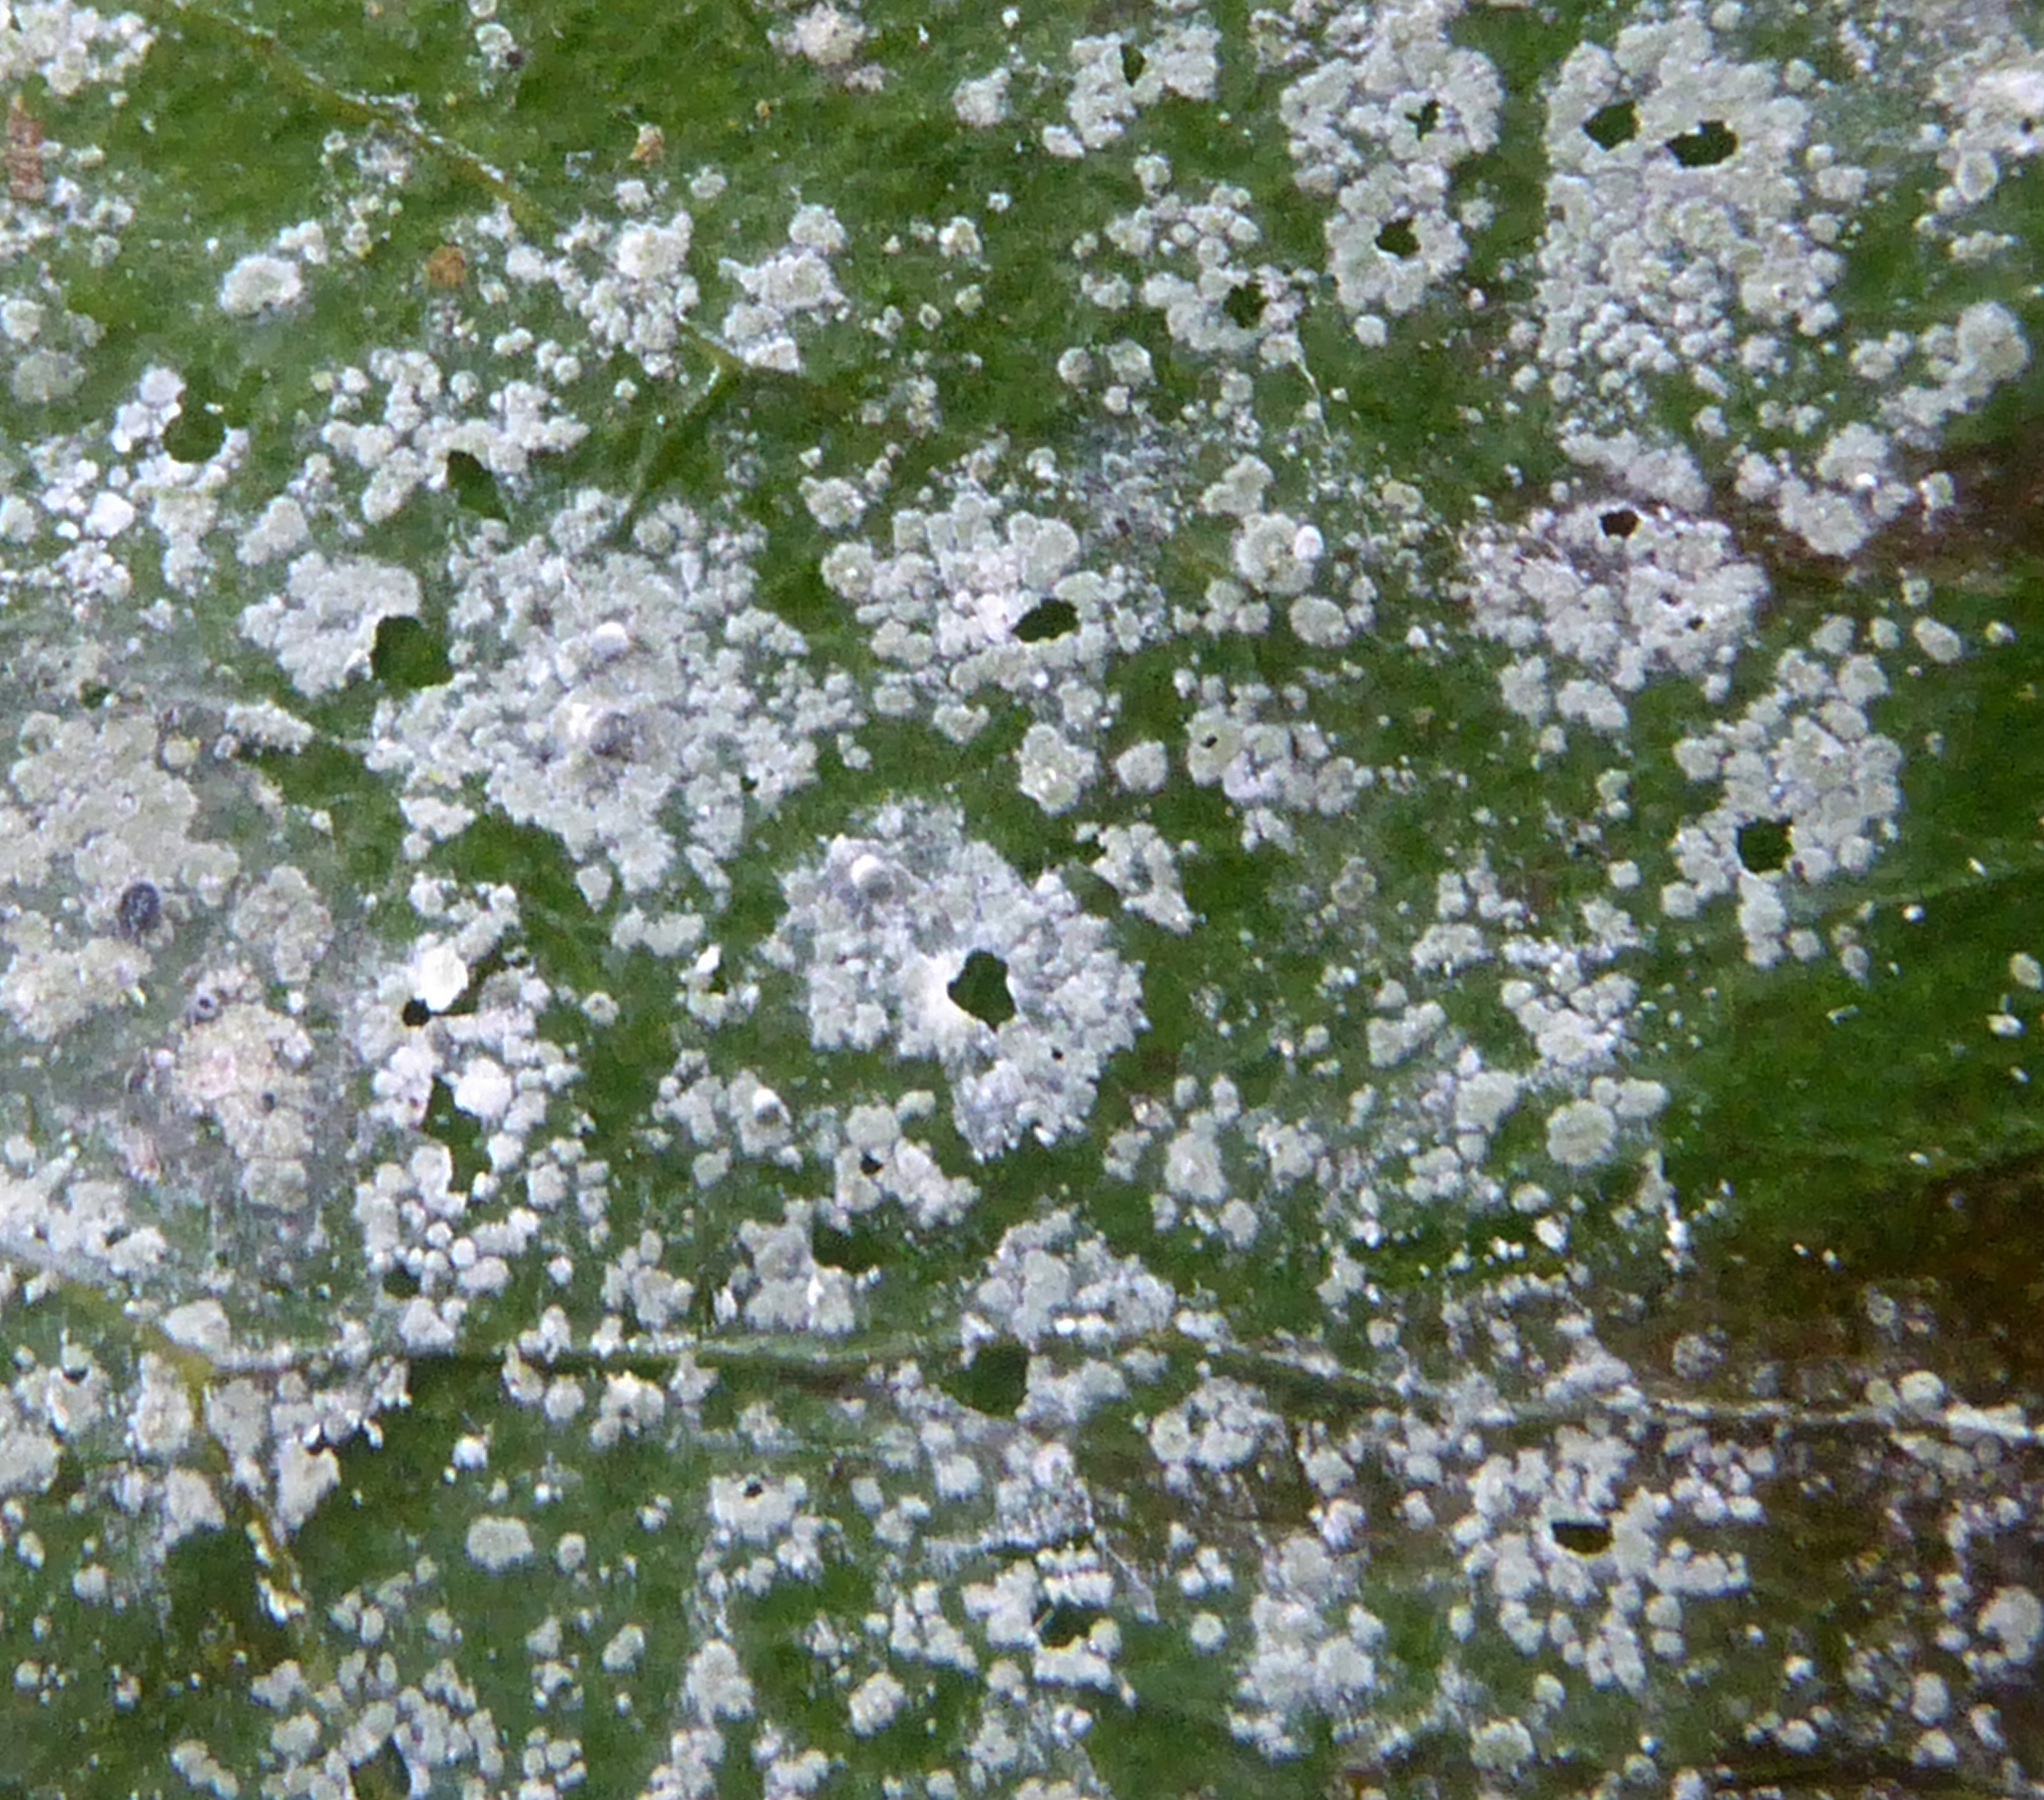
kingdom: Fungi
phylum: Ascomycota
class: Lecanoromycetes
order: Lecanorales
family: Byssolomataceae
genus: Calopadia
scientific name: Calopadia subcoerulescens
